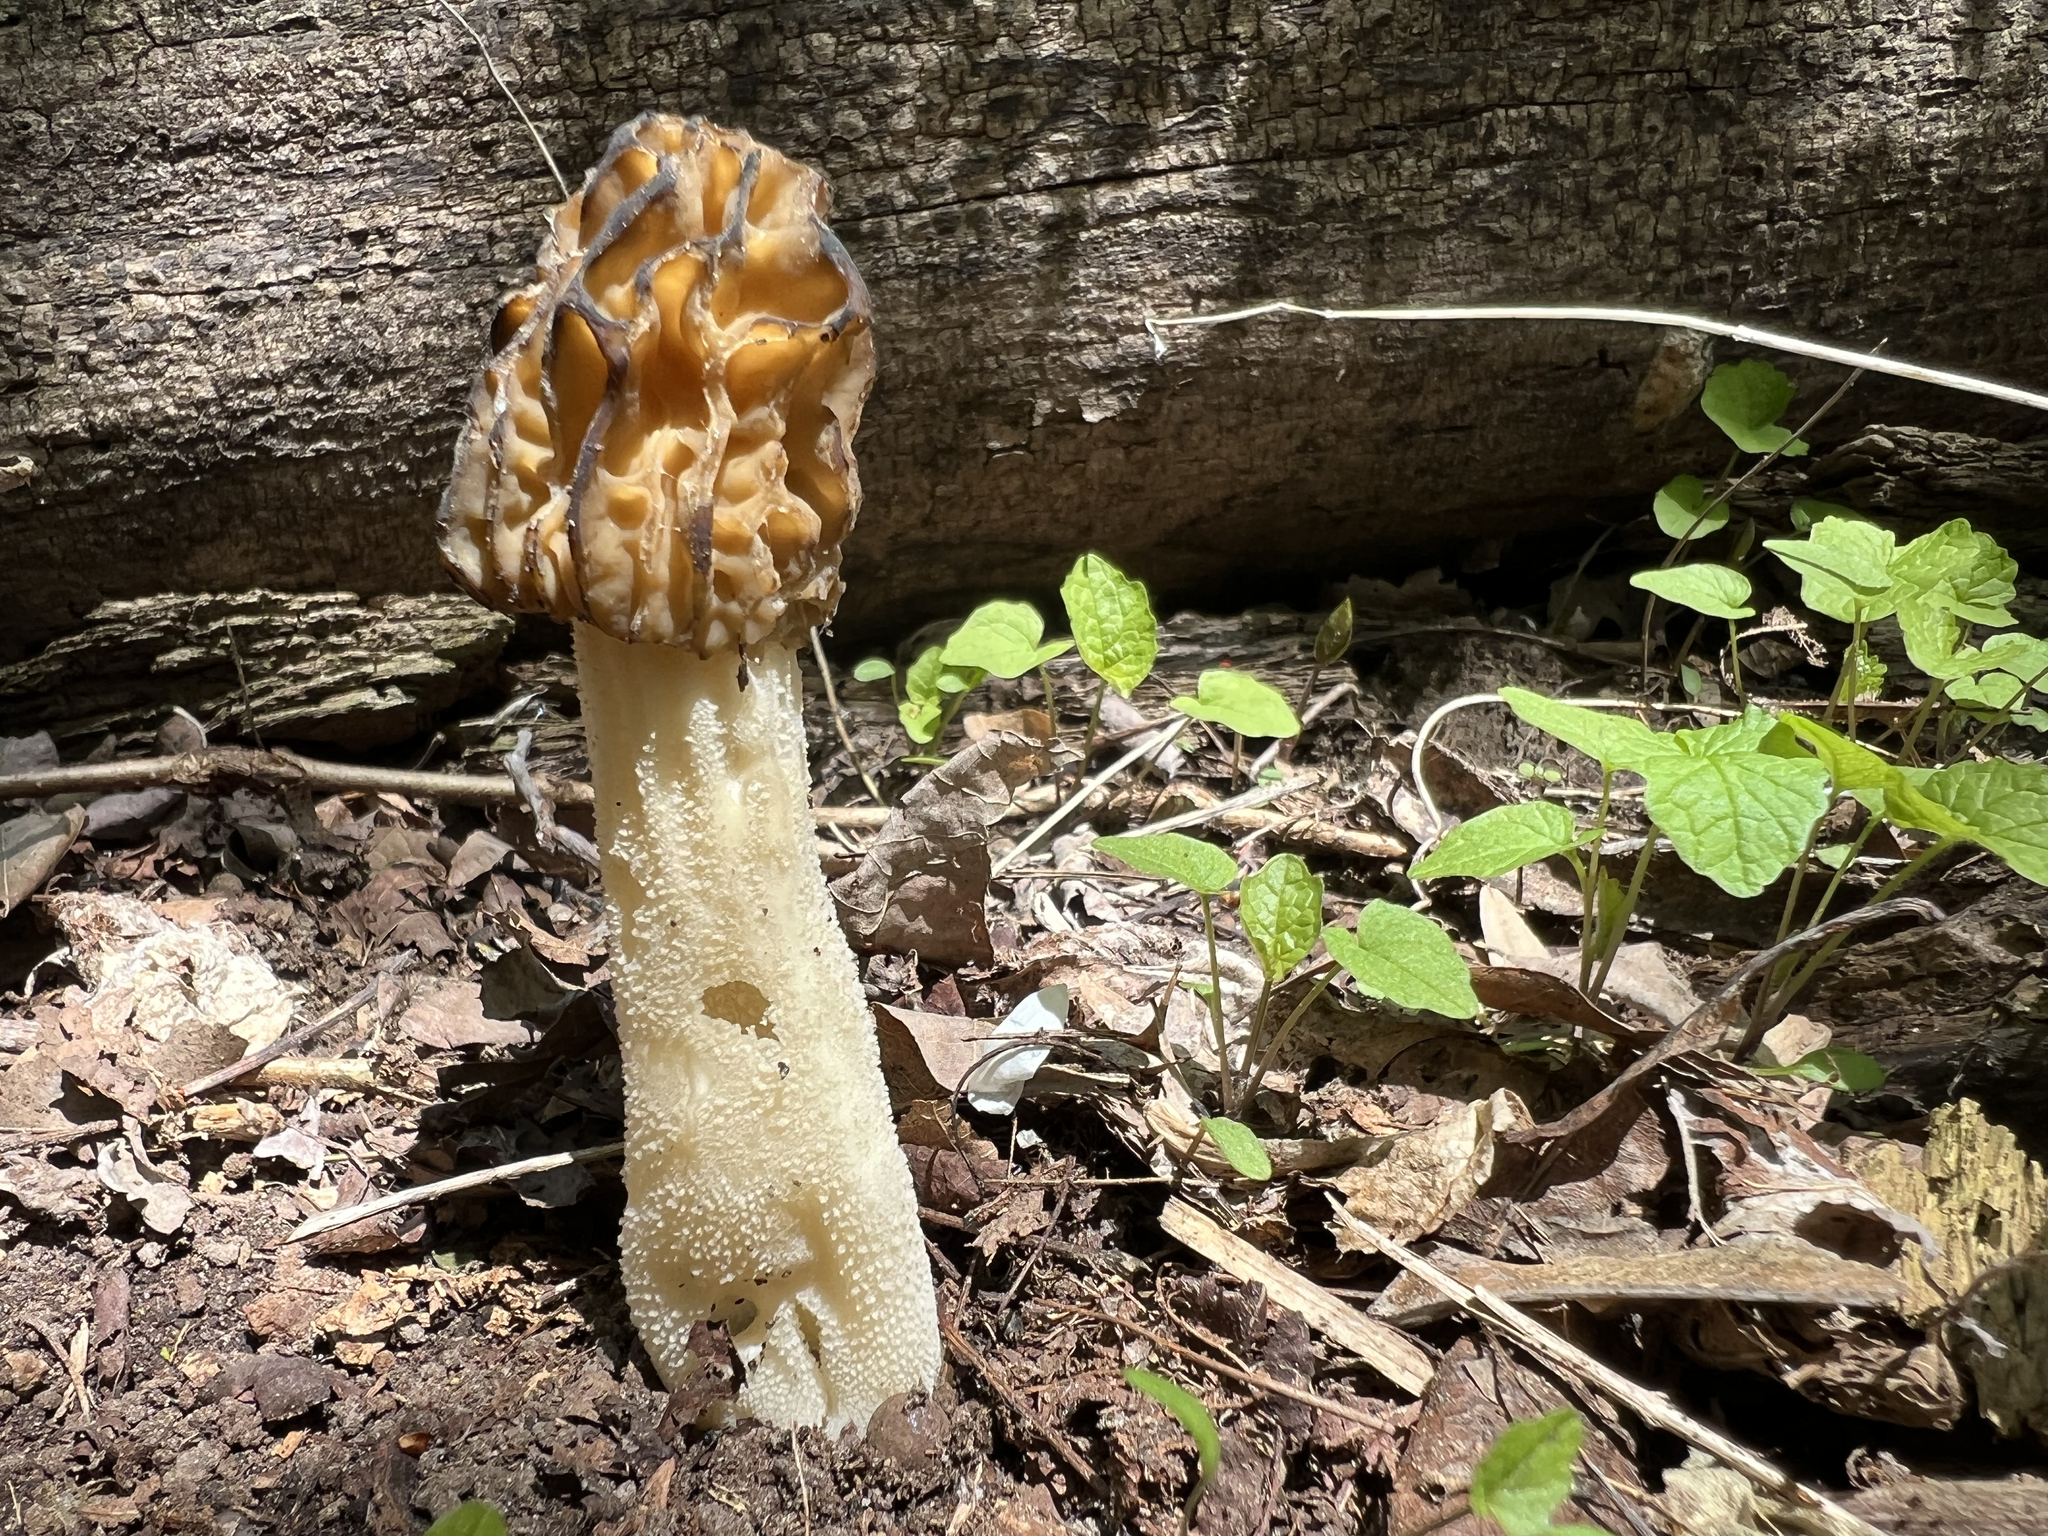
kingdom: Fungi
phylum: Ascomycota
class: Pezizomycetes
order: Pezizales
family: Morchellaceae
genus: Morchella
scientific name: Morchella punctipes
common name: Half-free morel
